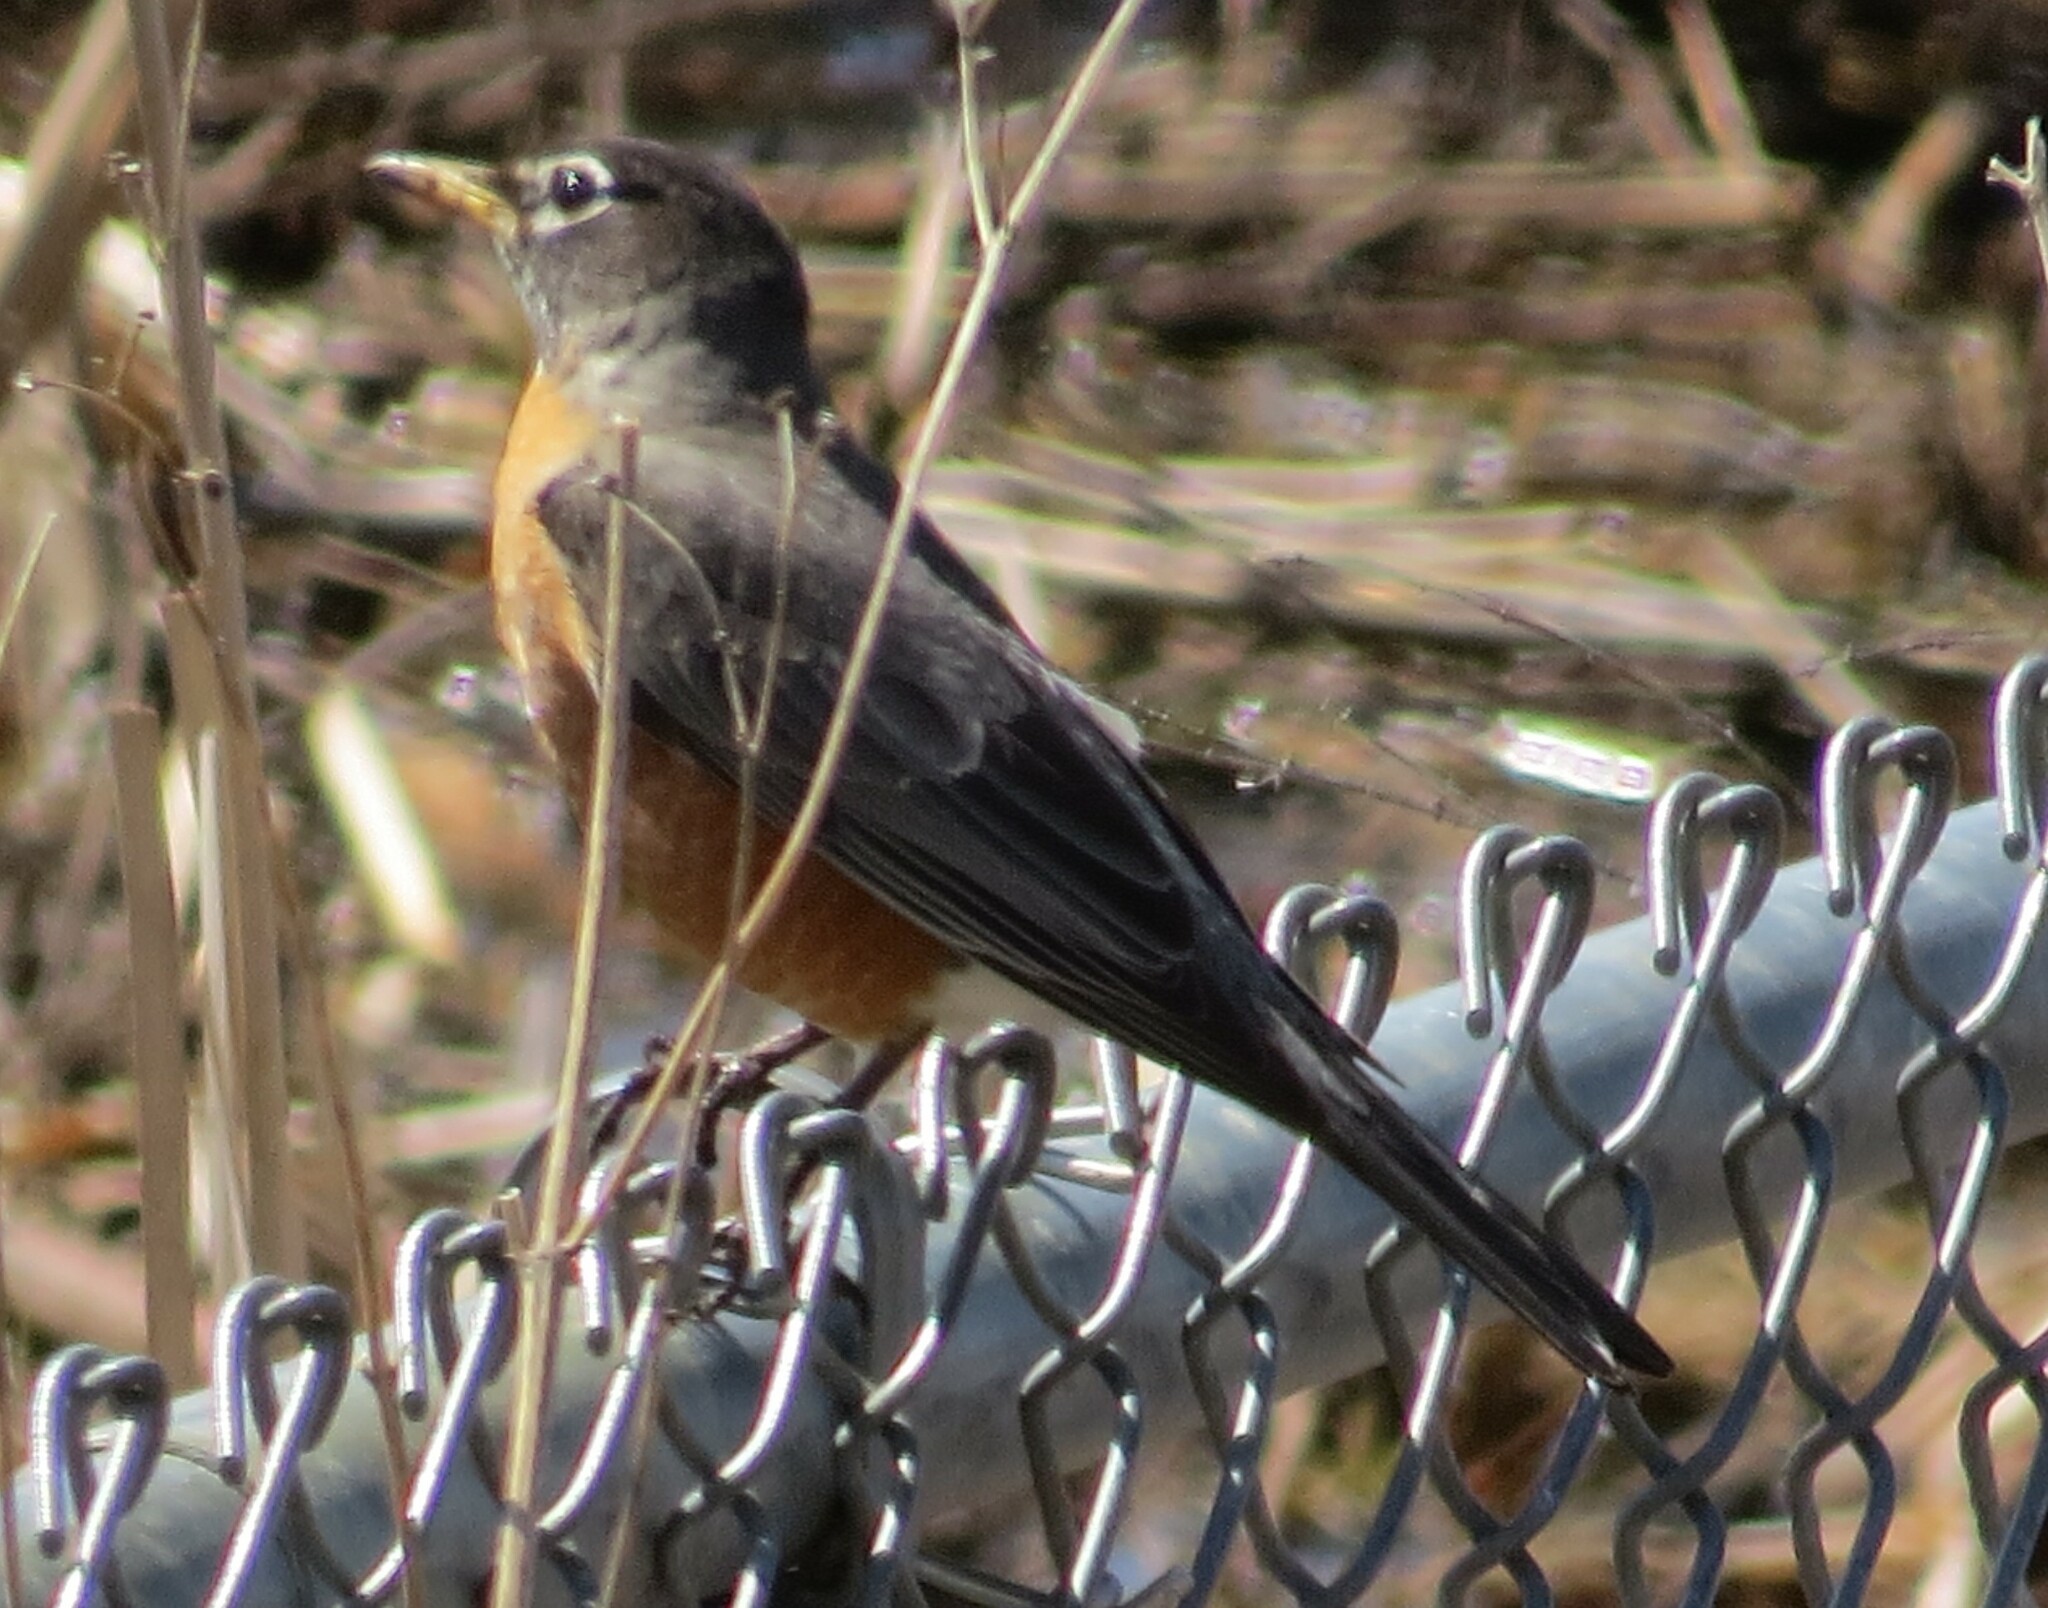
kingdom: Animalia
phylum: Chordata
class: Aves
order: Passeriformes
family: Turdidae
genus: Turdus
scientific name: Turdus migratorius
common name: American robin
